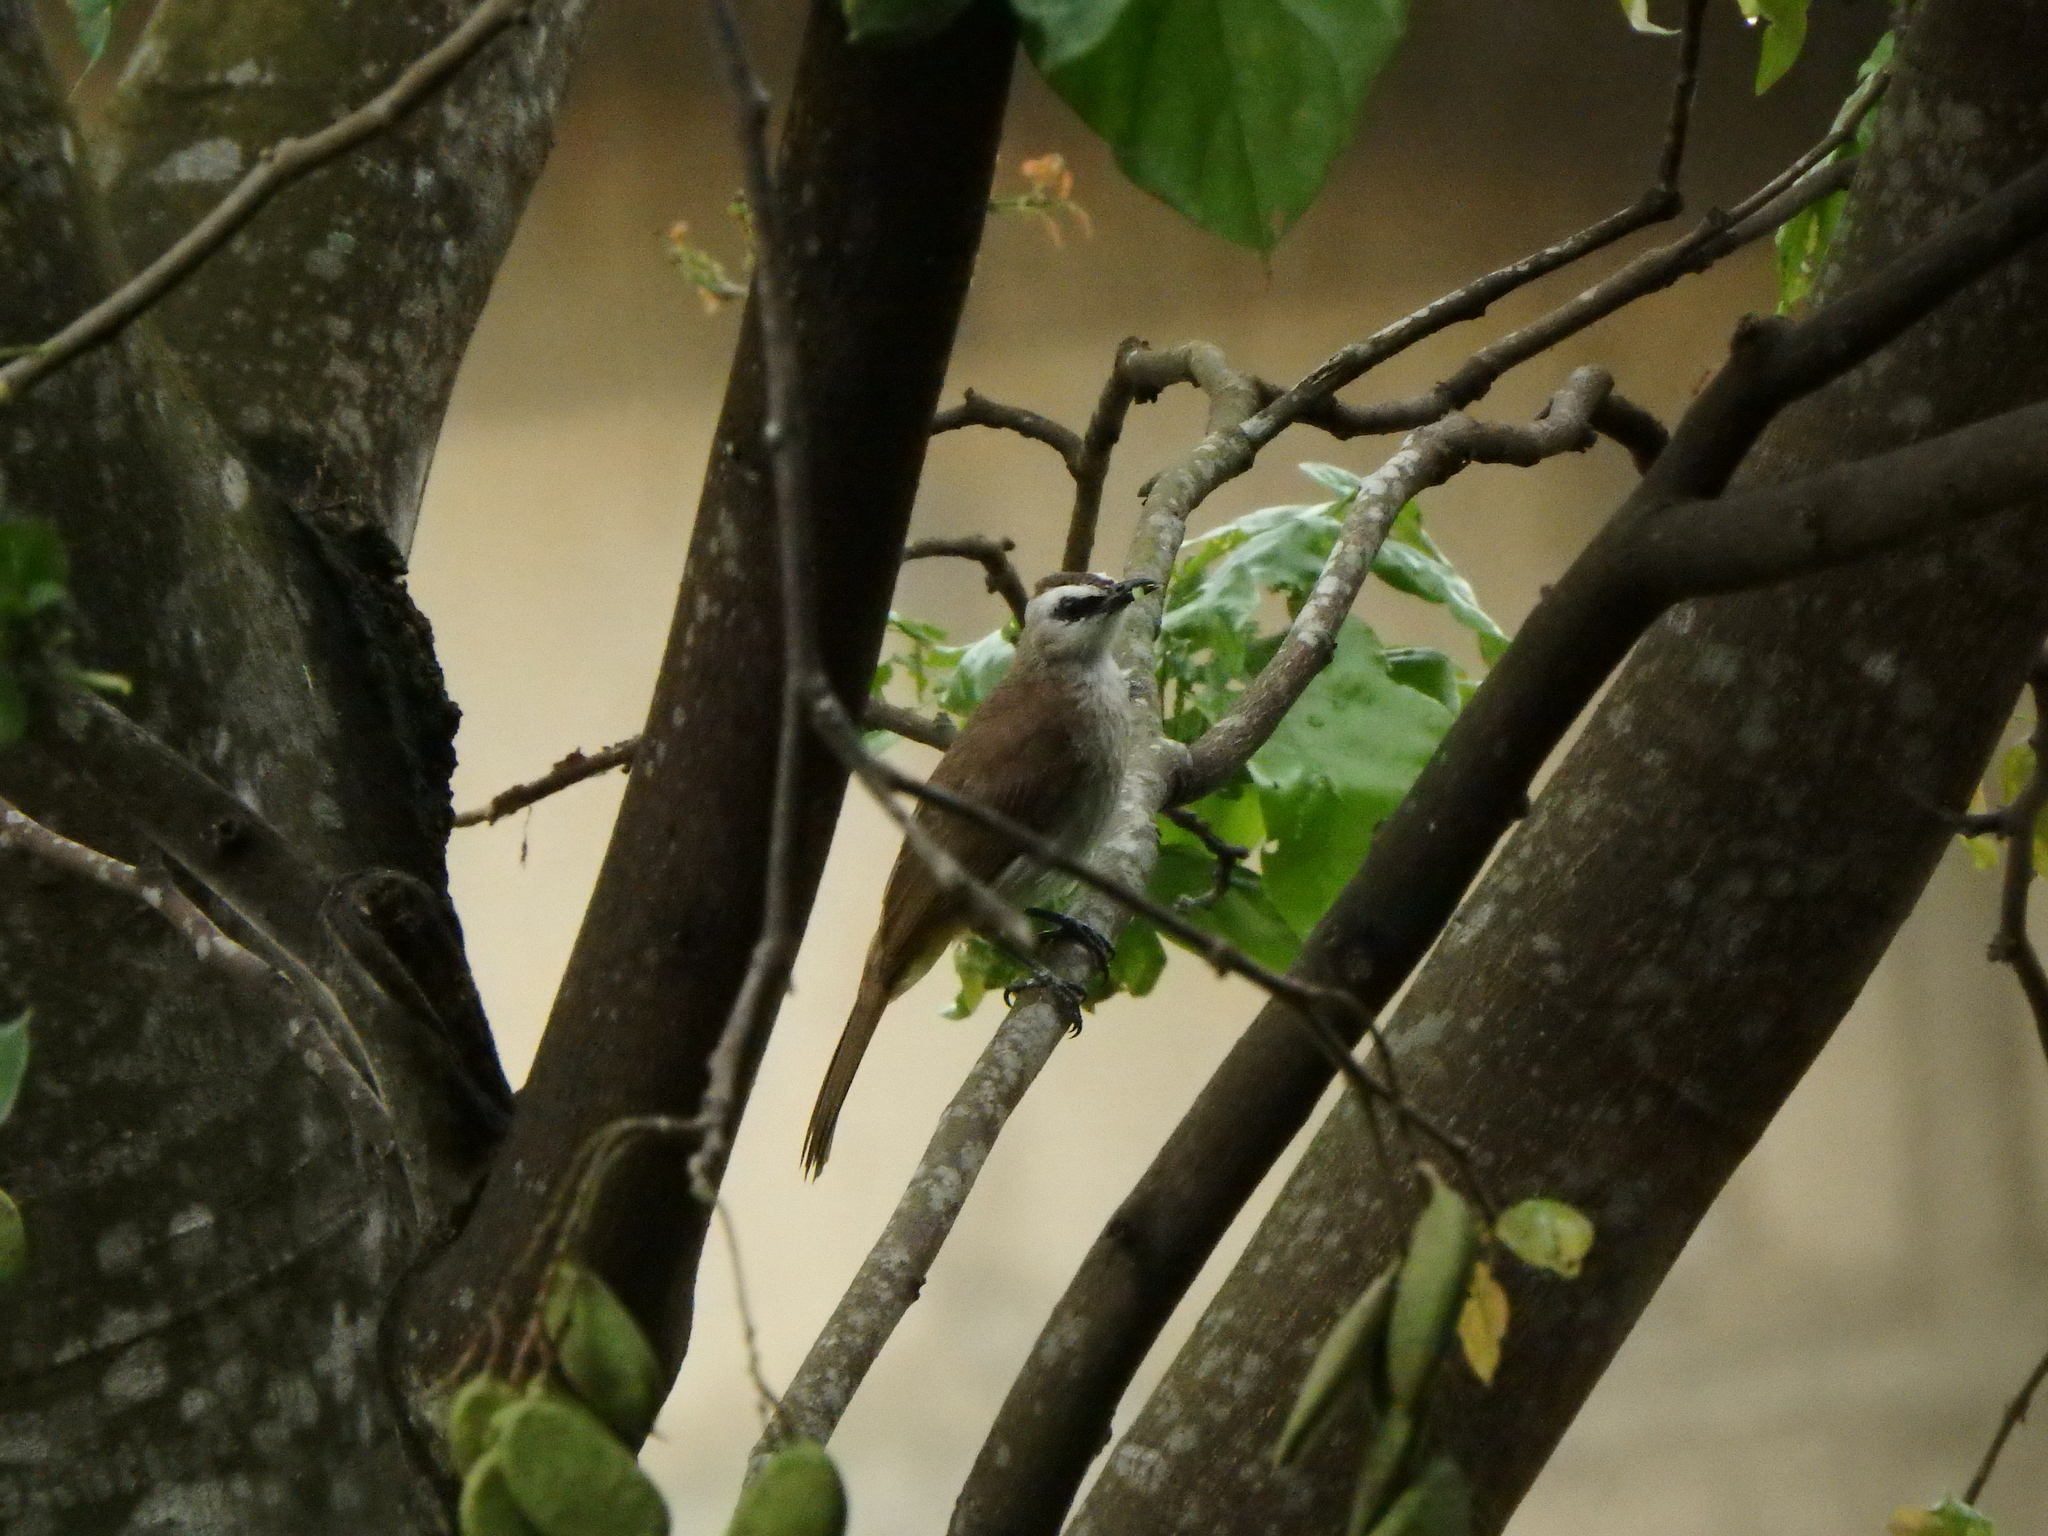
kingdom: Animalia
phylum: Chordata
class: Aves
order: Passeriformes
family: Pycnonotidae
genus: Pycnonotus
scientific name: Pycnonotus goiavier
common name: Yellow-vented bulbul
